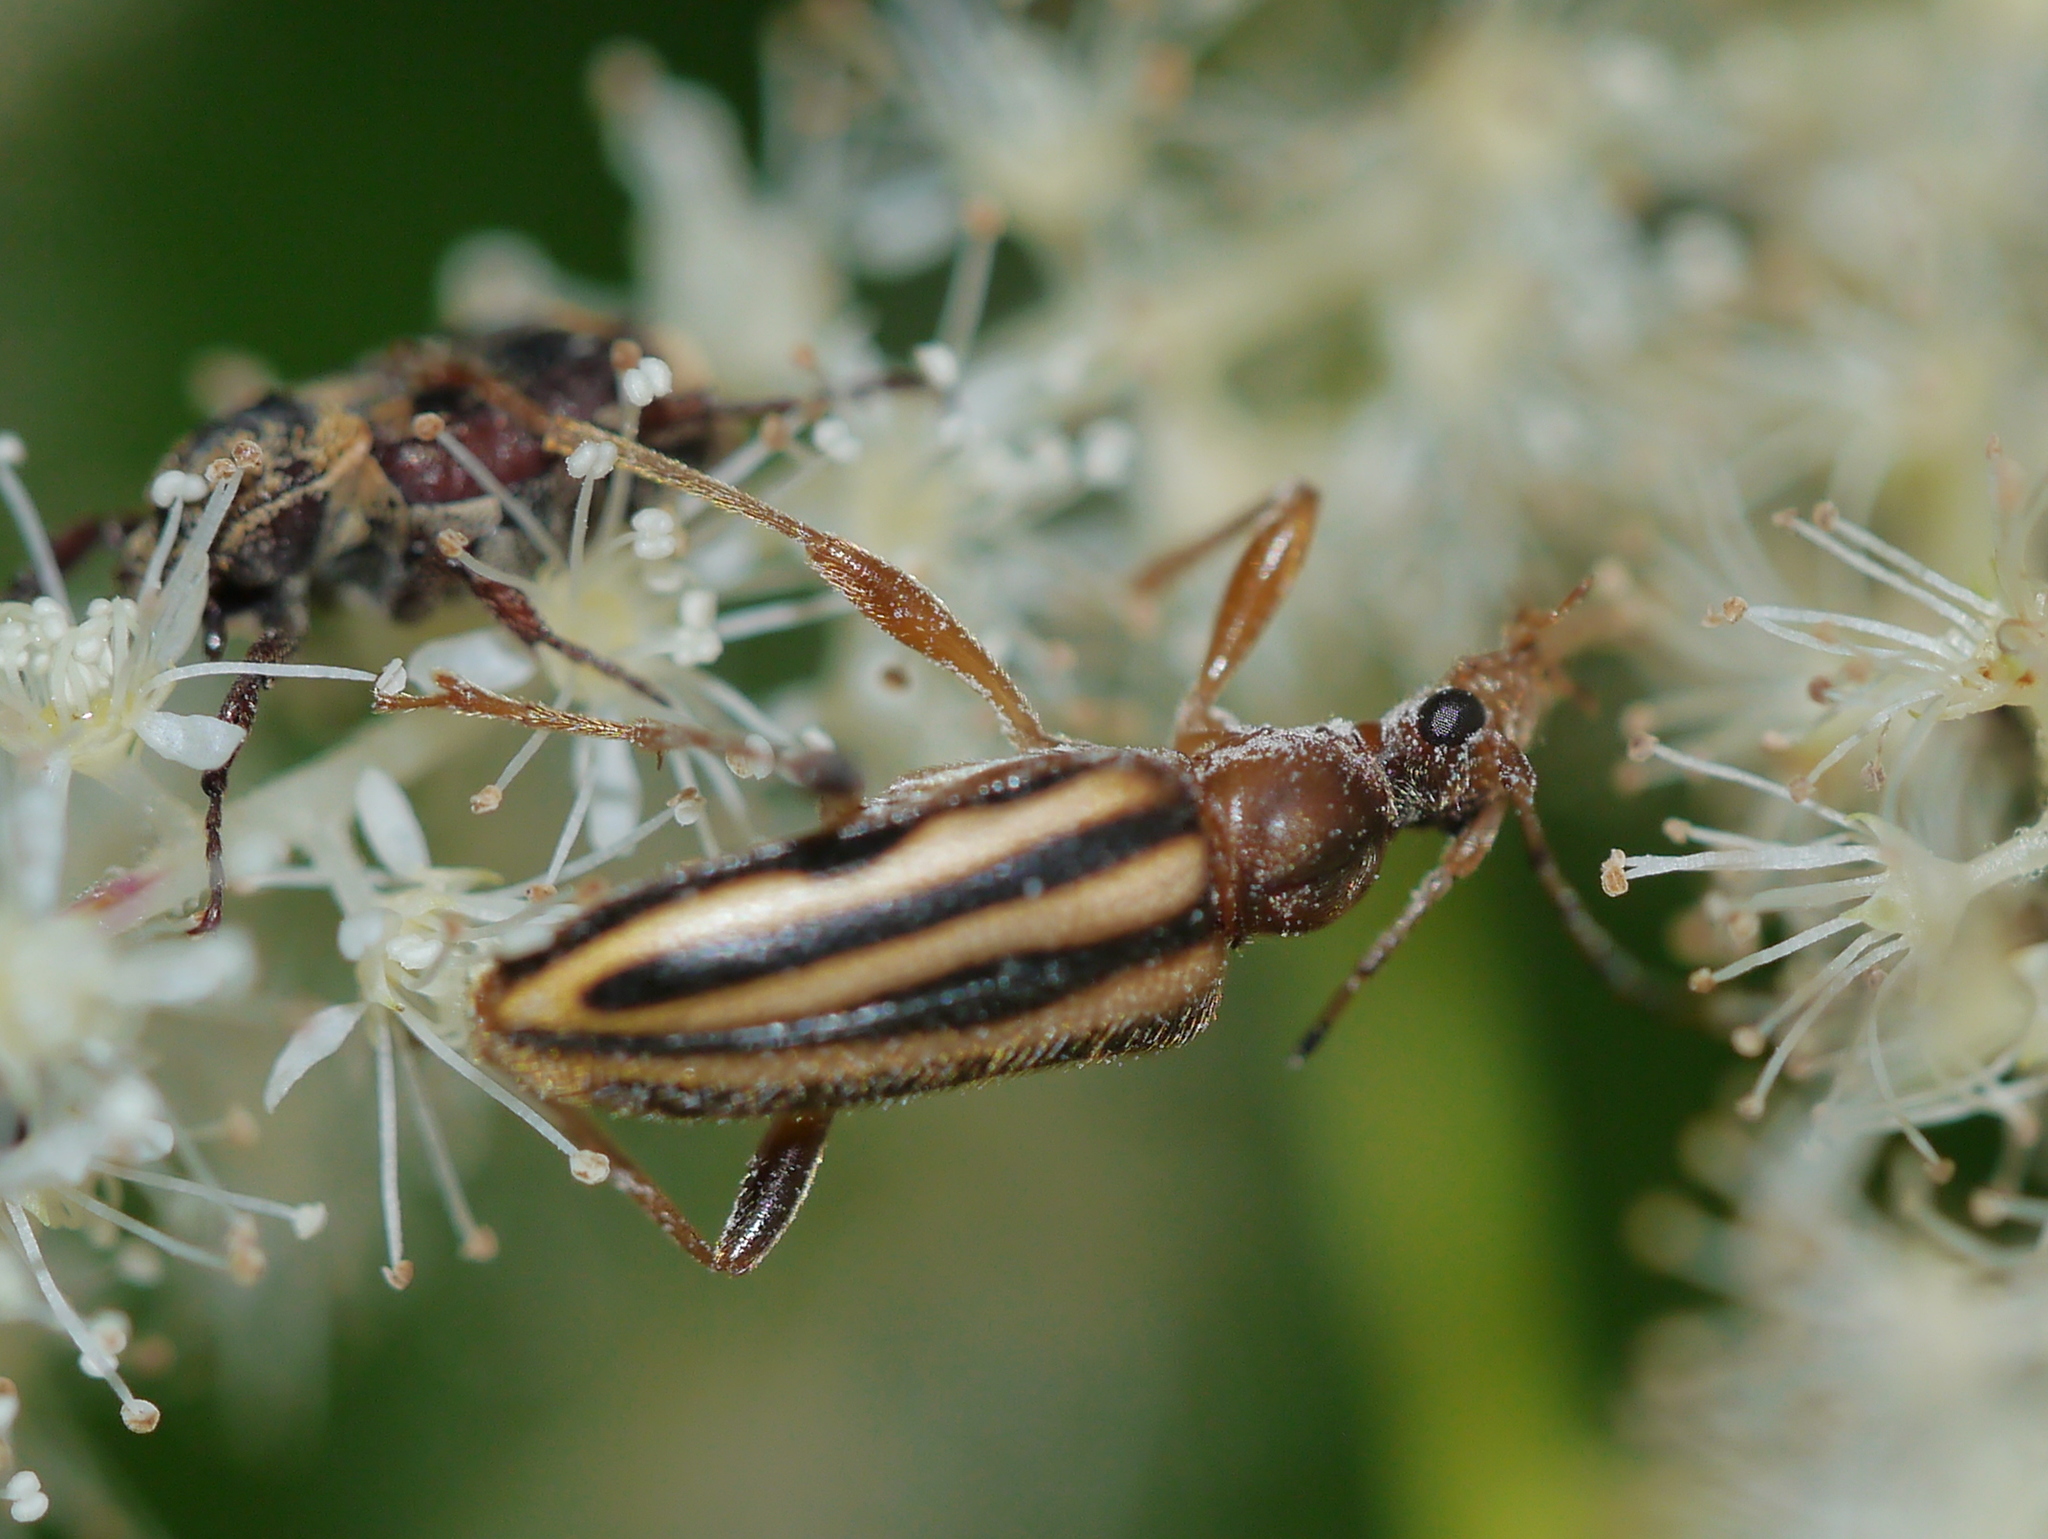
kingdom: Animalia
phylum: Arthropoda
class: Insecta
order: Coleoptera
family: Cerambycidae
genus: Metacmaeops
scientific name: Metacmaeops vittata
